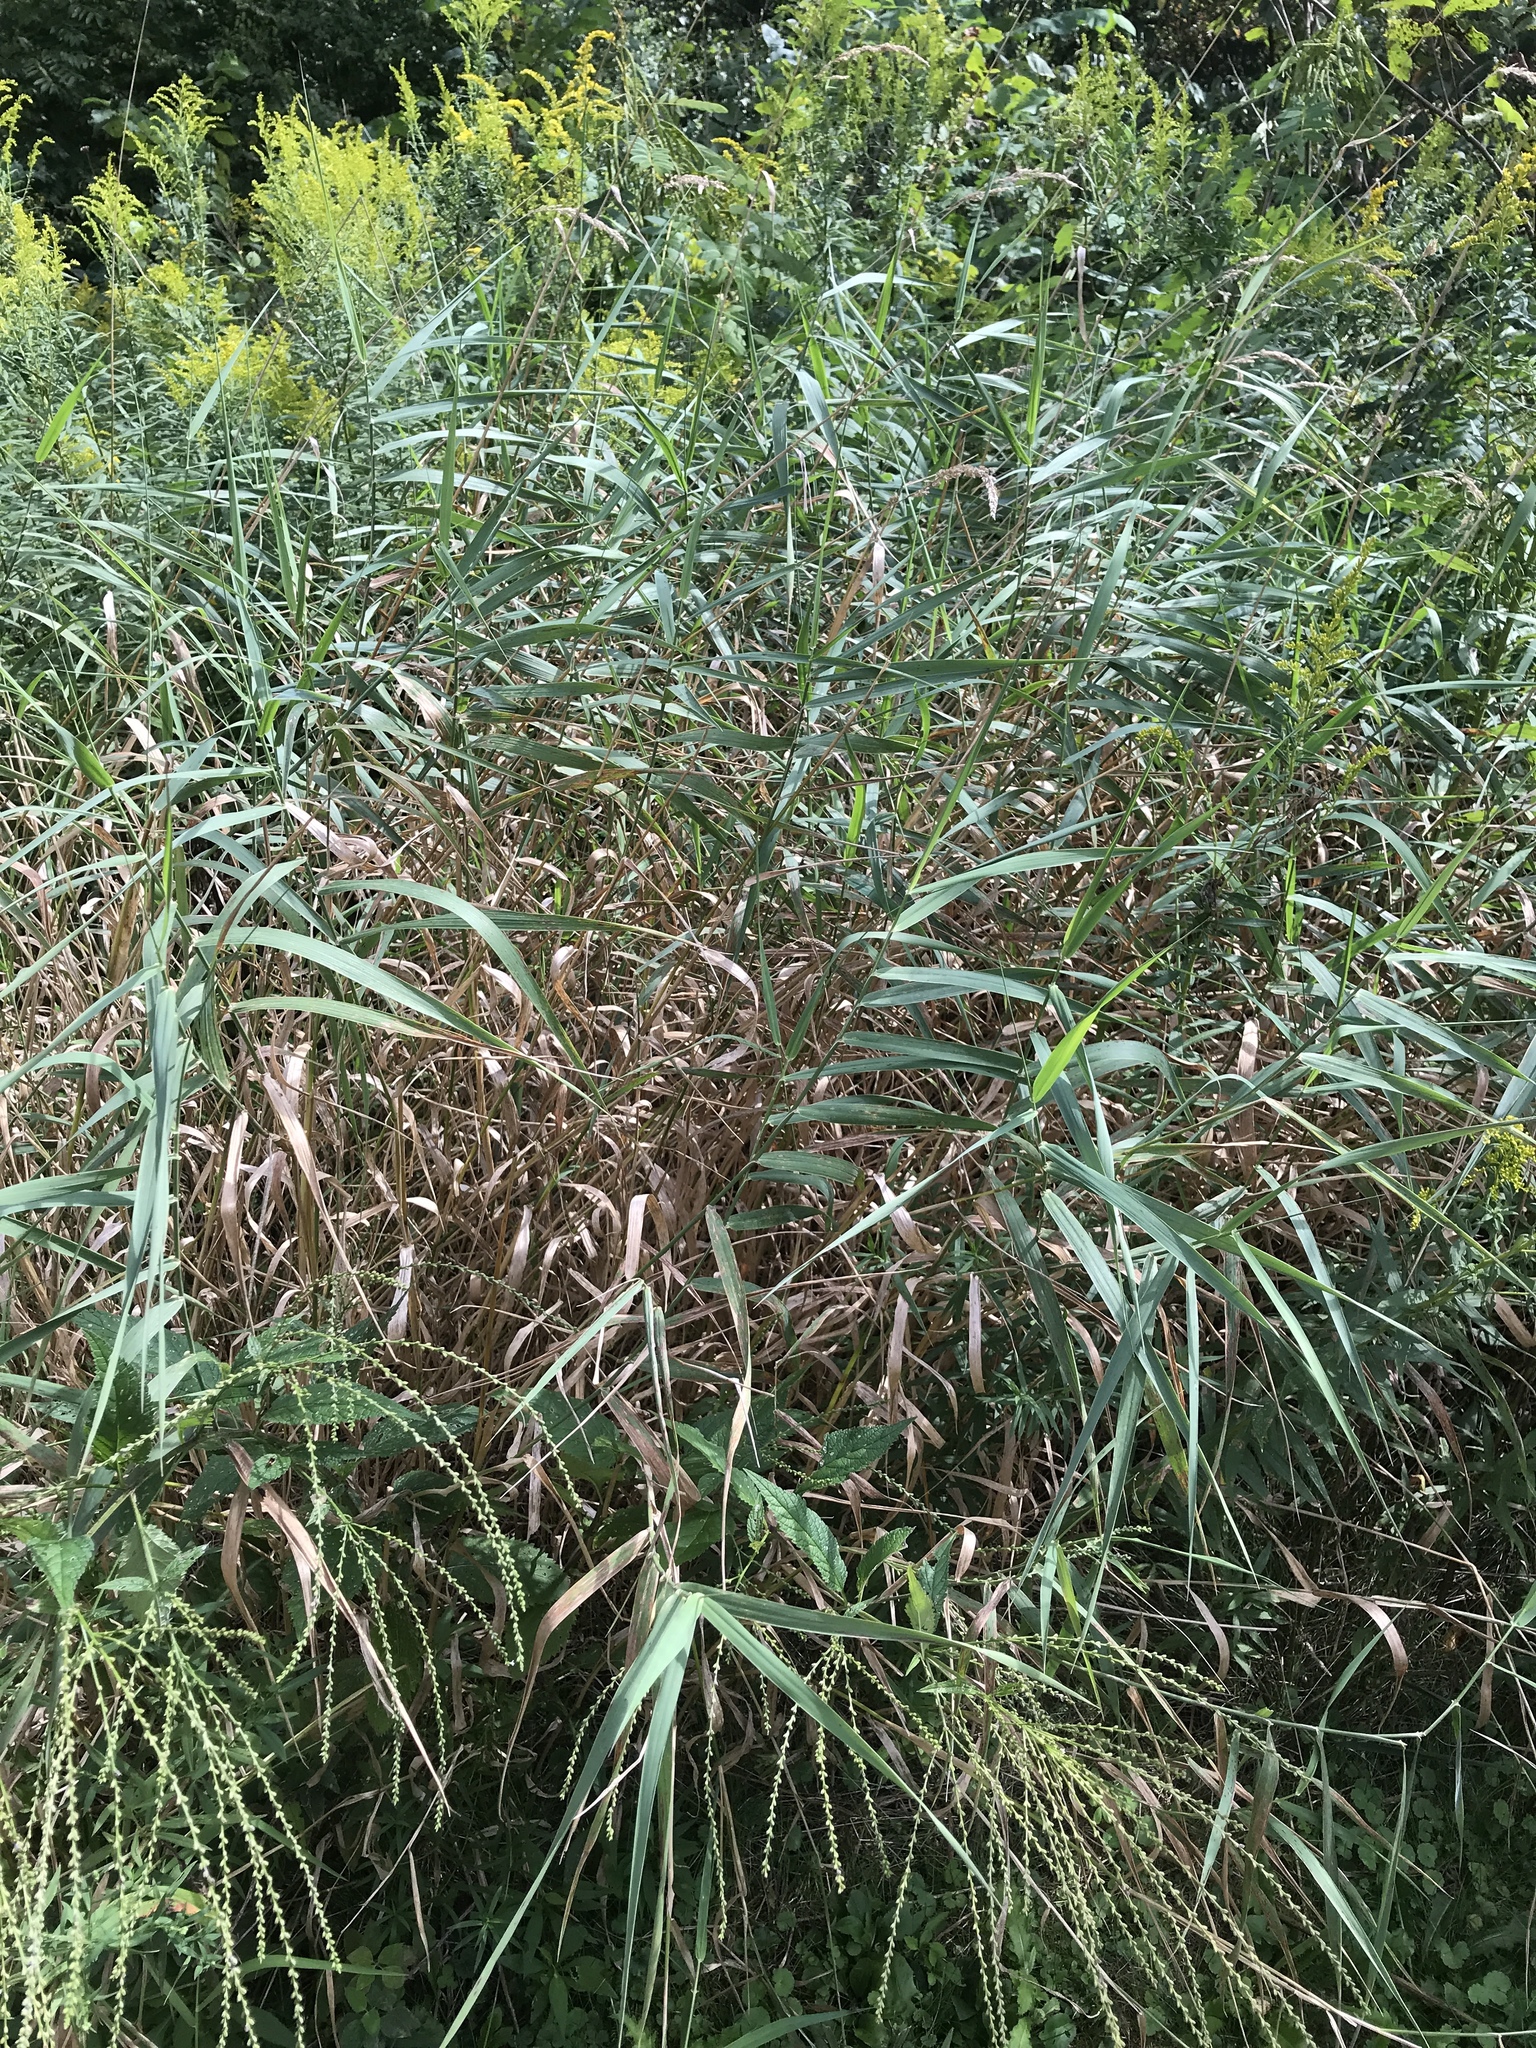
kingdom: Plantae
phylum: Tracheophyta
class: Liliopsida
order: Poales
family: Poaceae
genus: Phalaris
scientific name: Phalaris arundinacea
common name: Reed canary-grass
